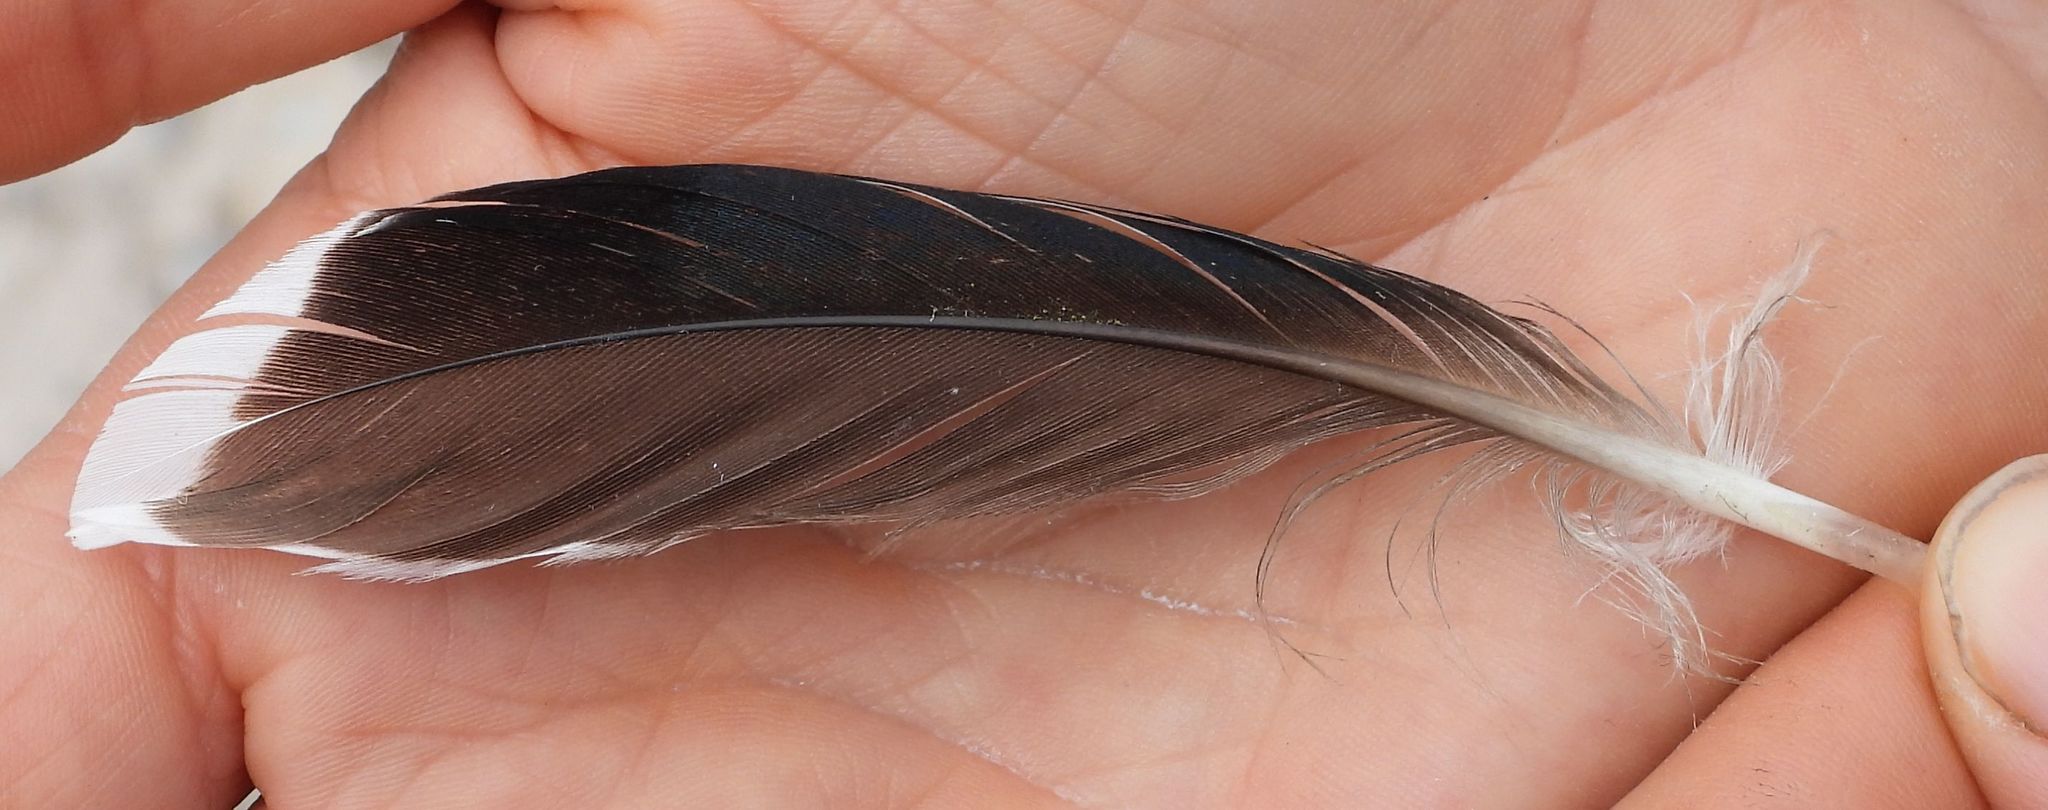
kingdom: Animalia
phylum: Chordata
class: Aves
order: Anseriformes
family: Anatidae
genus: Anas
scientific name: Anas platyrhynchos
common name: Mallard
